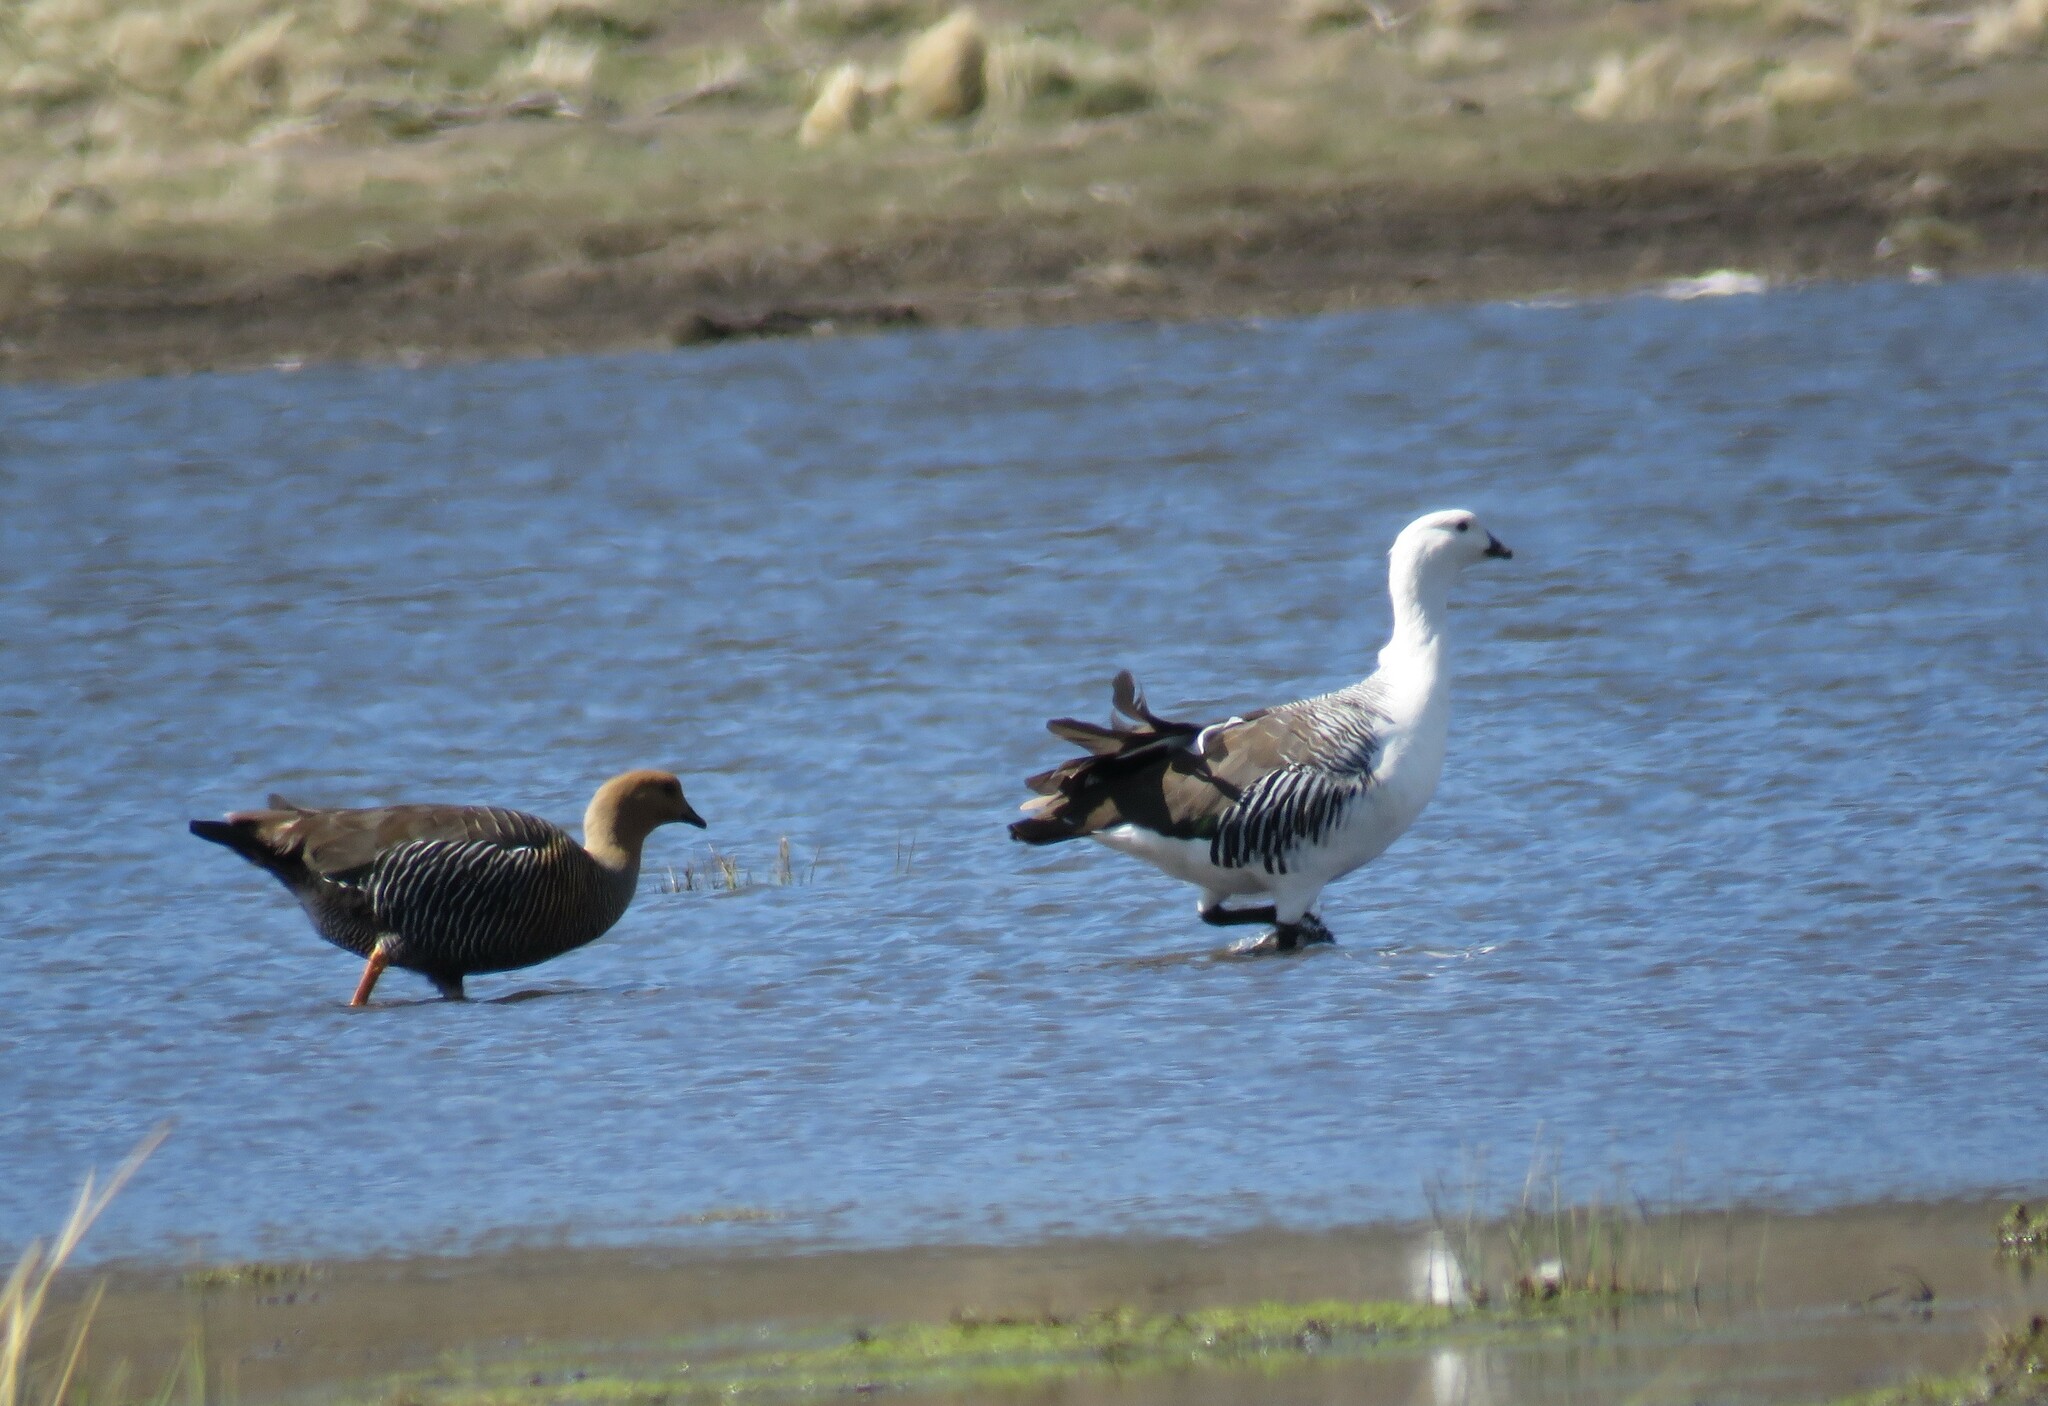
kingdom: Animalia
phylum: Chordata
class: Aves
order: Anseriformes
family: Anatidae
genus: Chloephaga
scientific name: Chloephaga picta
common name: Upland goose
